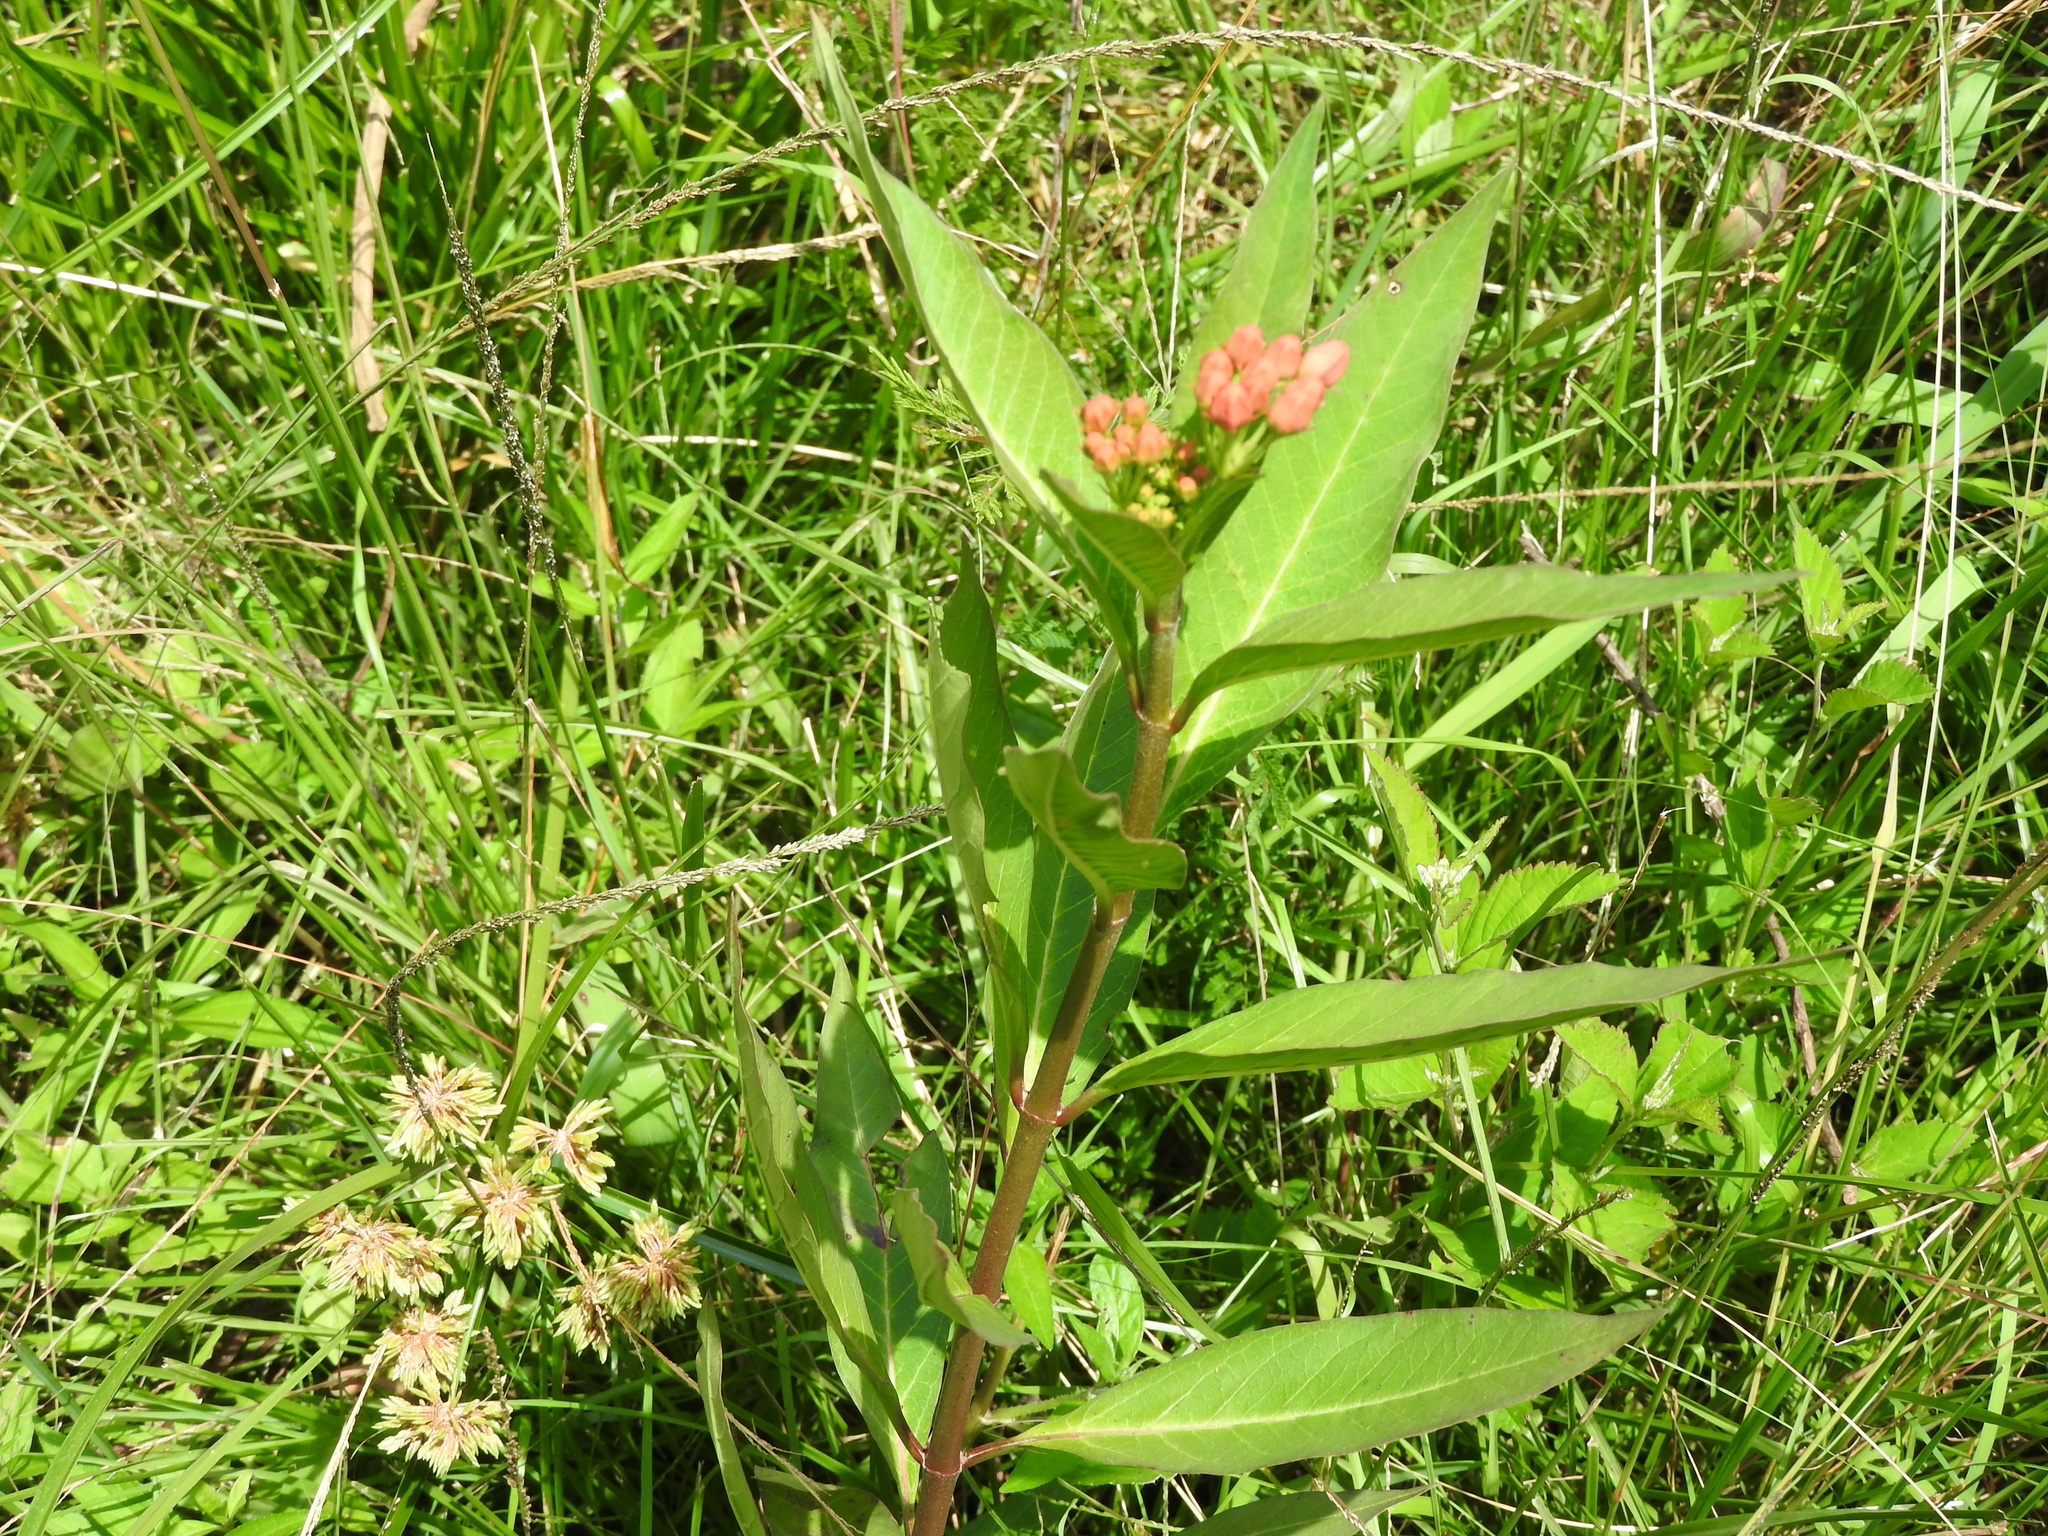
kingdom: Plantae
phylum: Tracheophyta
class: Magnoliopsida
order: Gentianales
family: Apocynaceae
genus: Asclepias
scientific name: Asclepias curassavica
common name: Bloodflower
